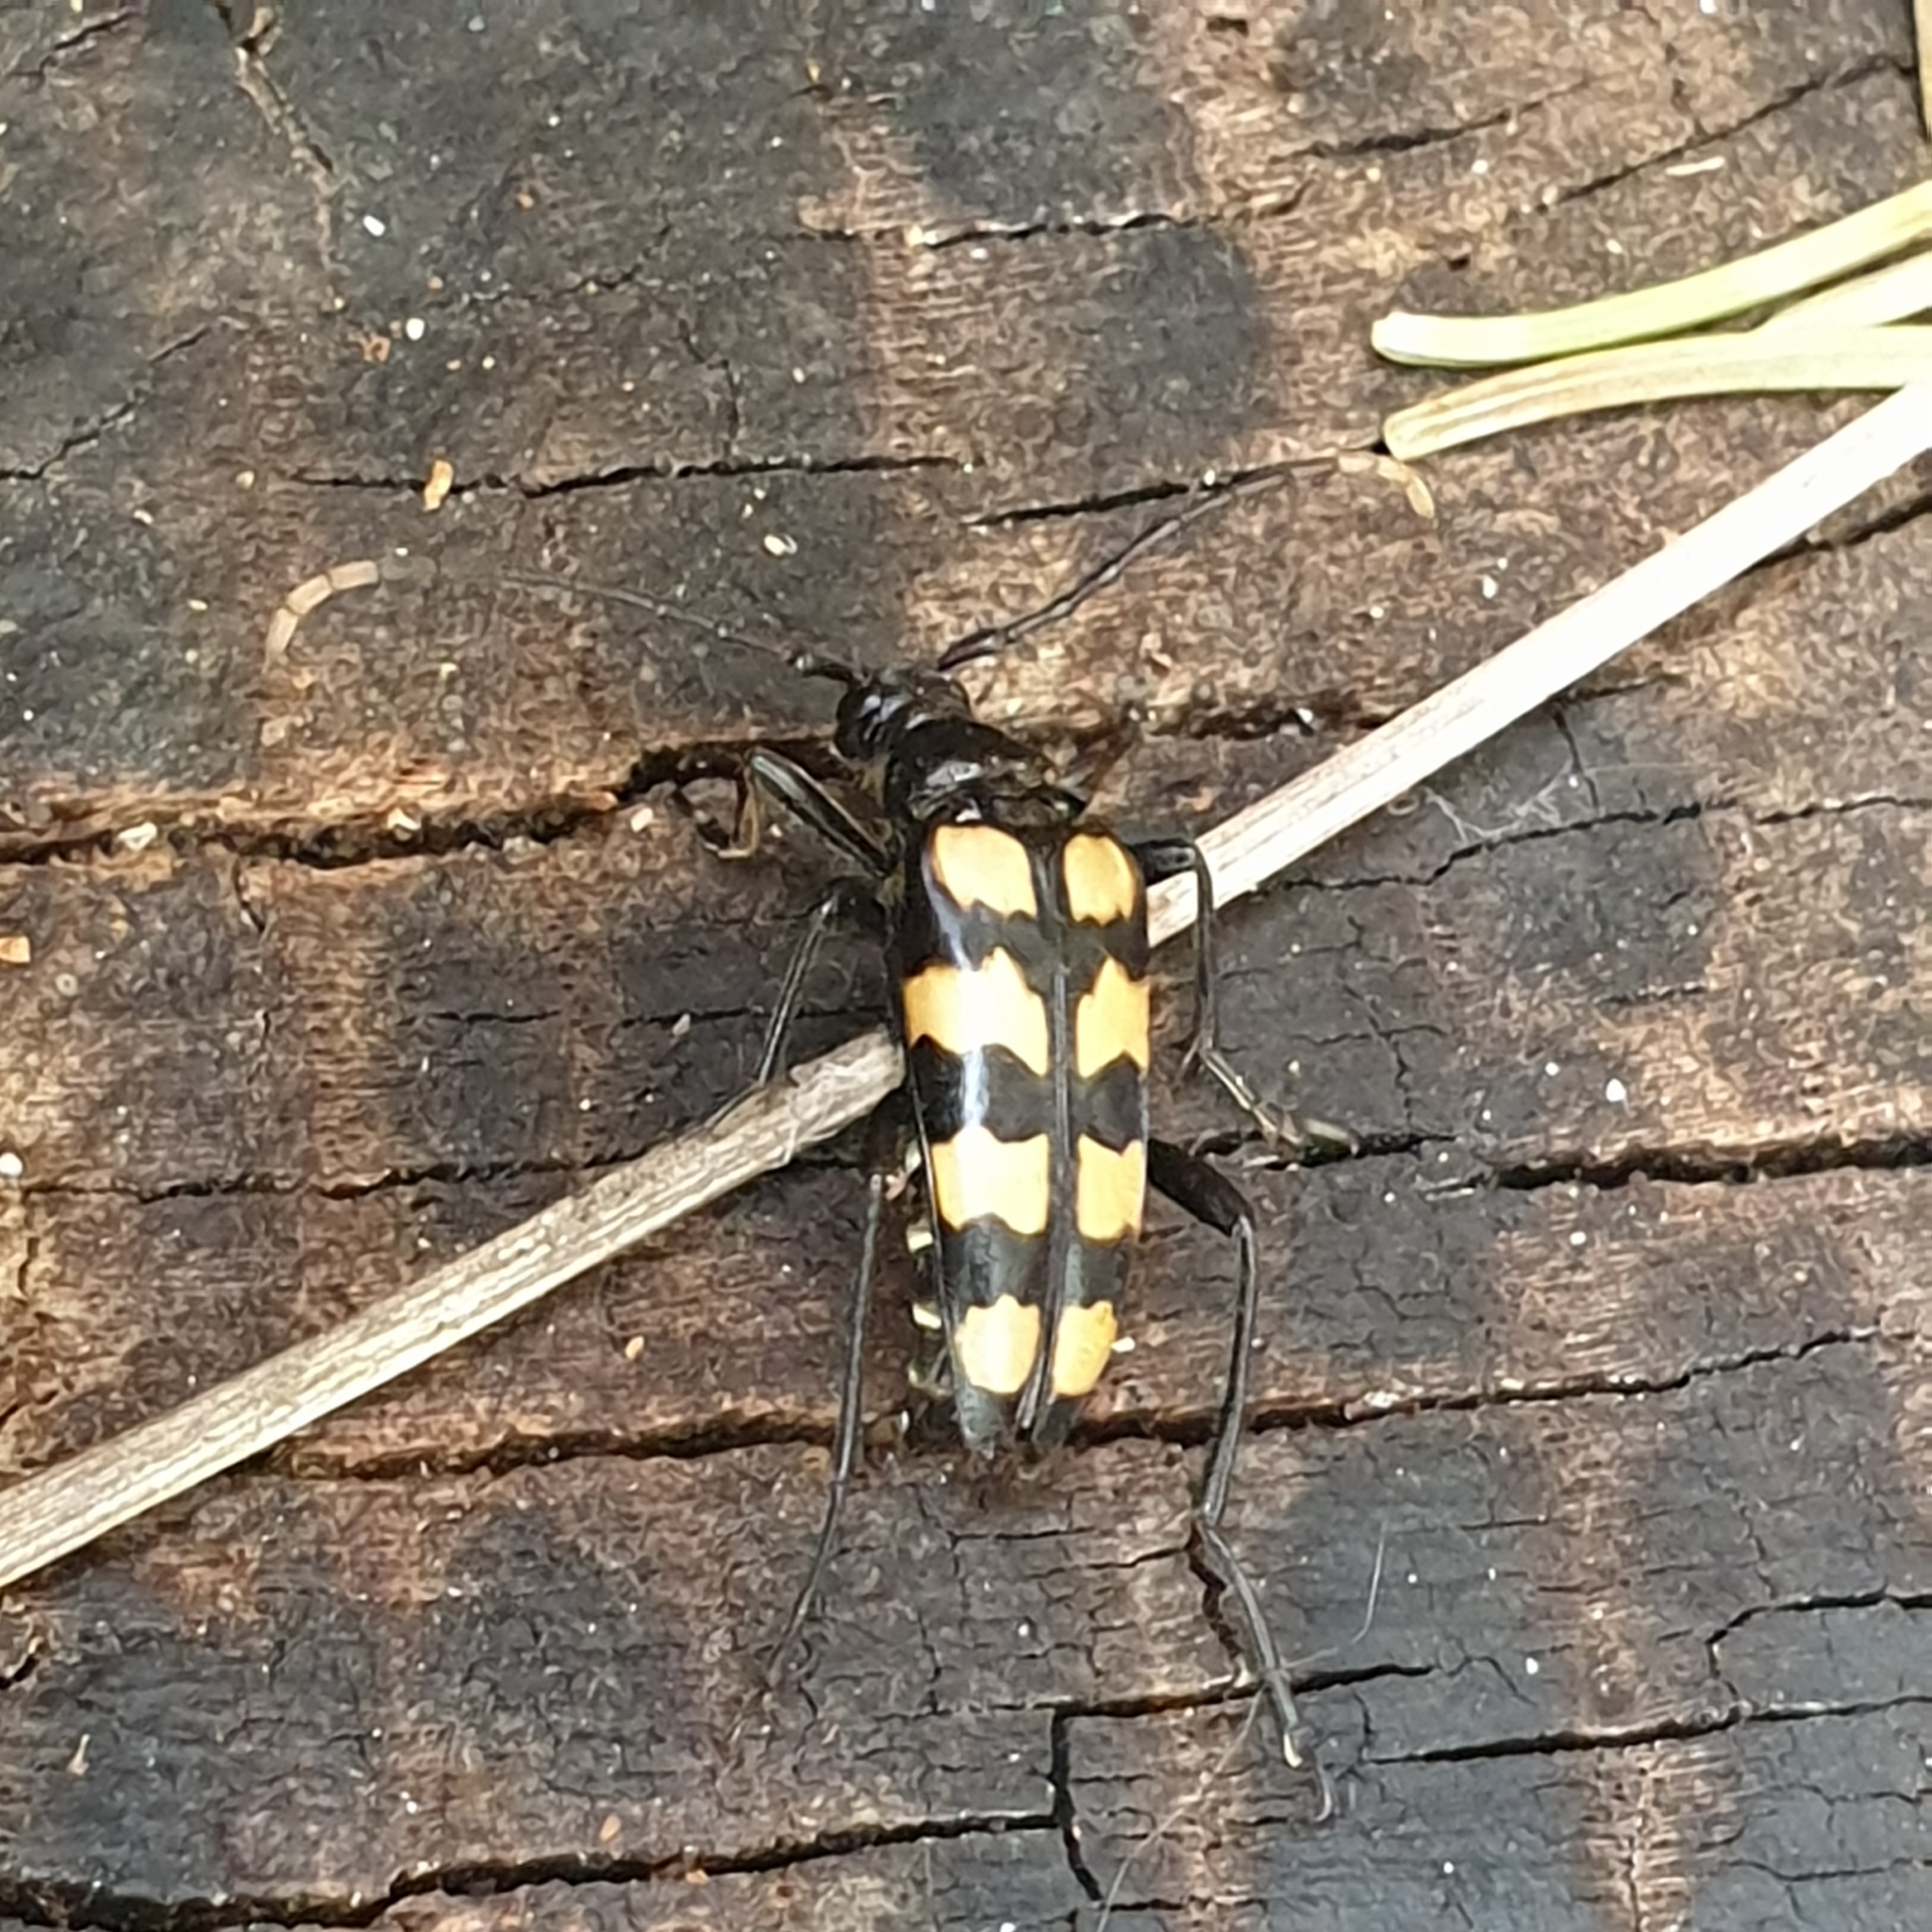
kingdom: Animalia
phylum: Arthropoda
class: Insecta
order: Coleoptera
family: Cerambycidae
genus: Leptura
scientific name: Leptura quadrifasciata
